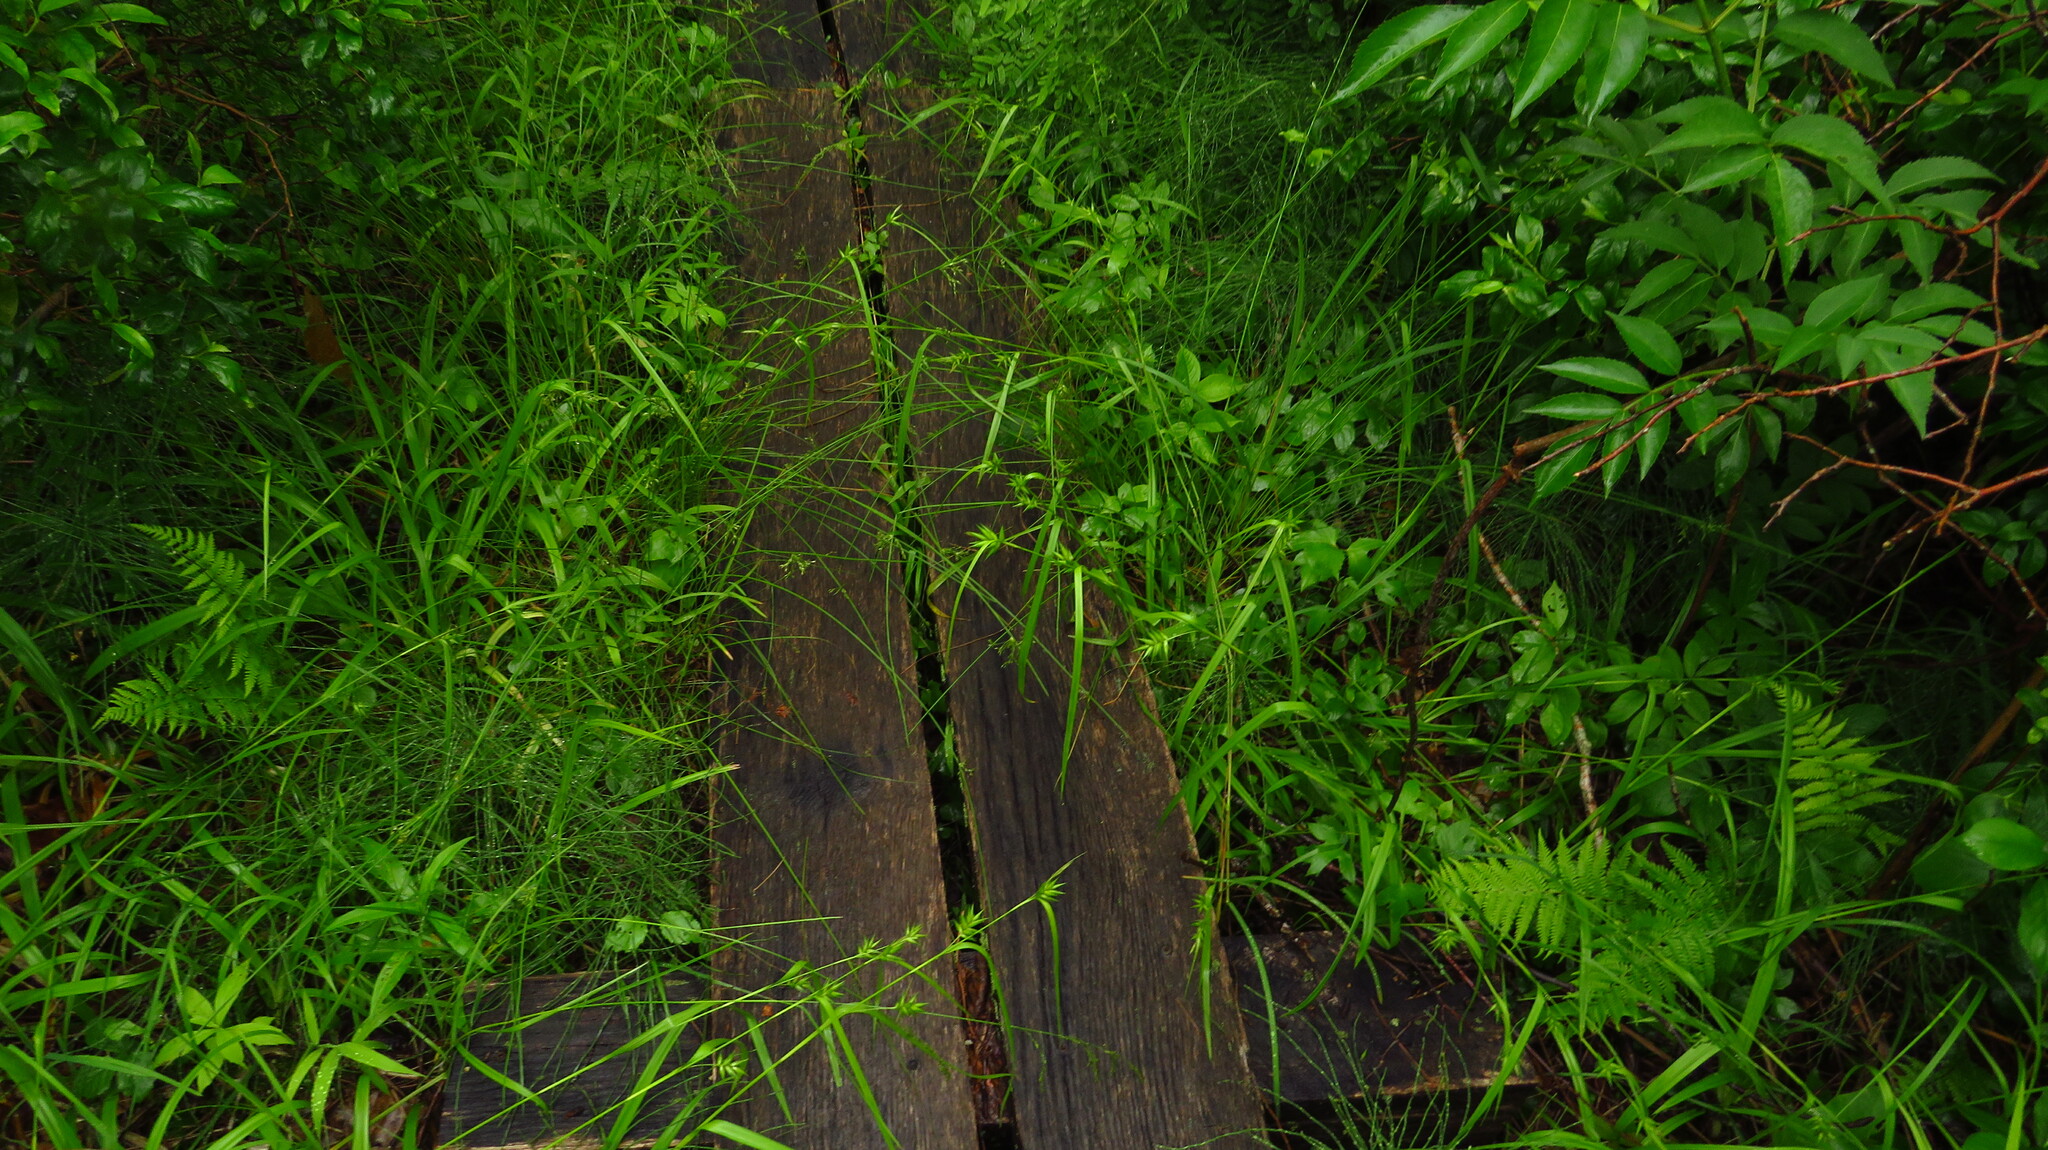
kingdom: Plantae
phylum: Tracheophyta
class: Liliopsida
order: Poales
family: Cyperaceae
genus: Carex
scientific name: Carex folliculata
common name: Northern long sedge
